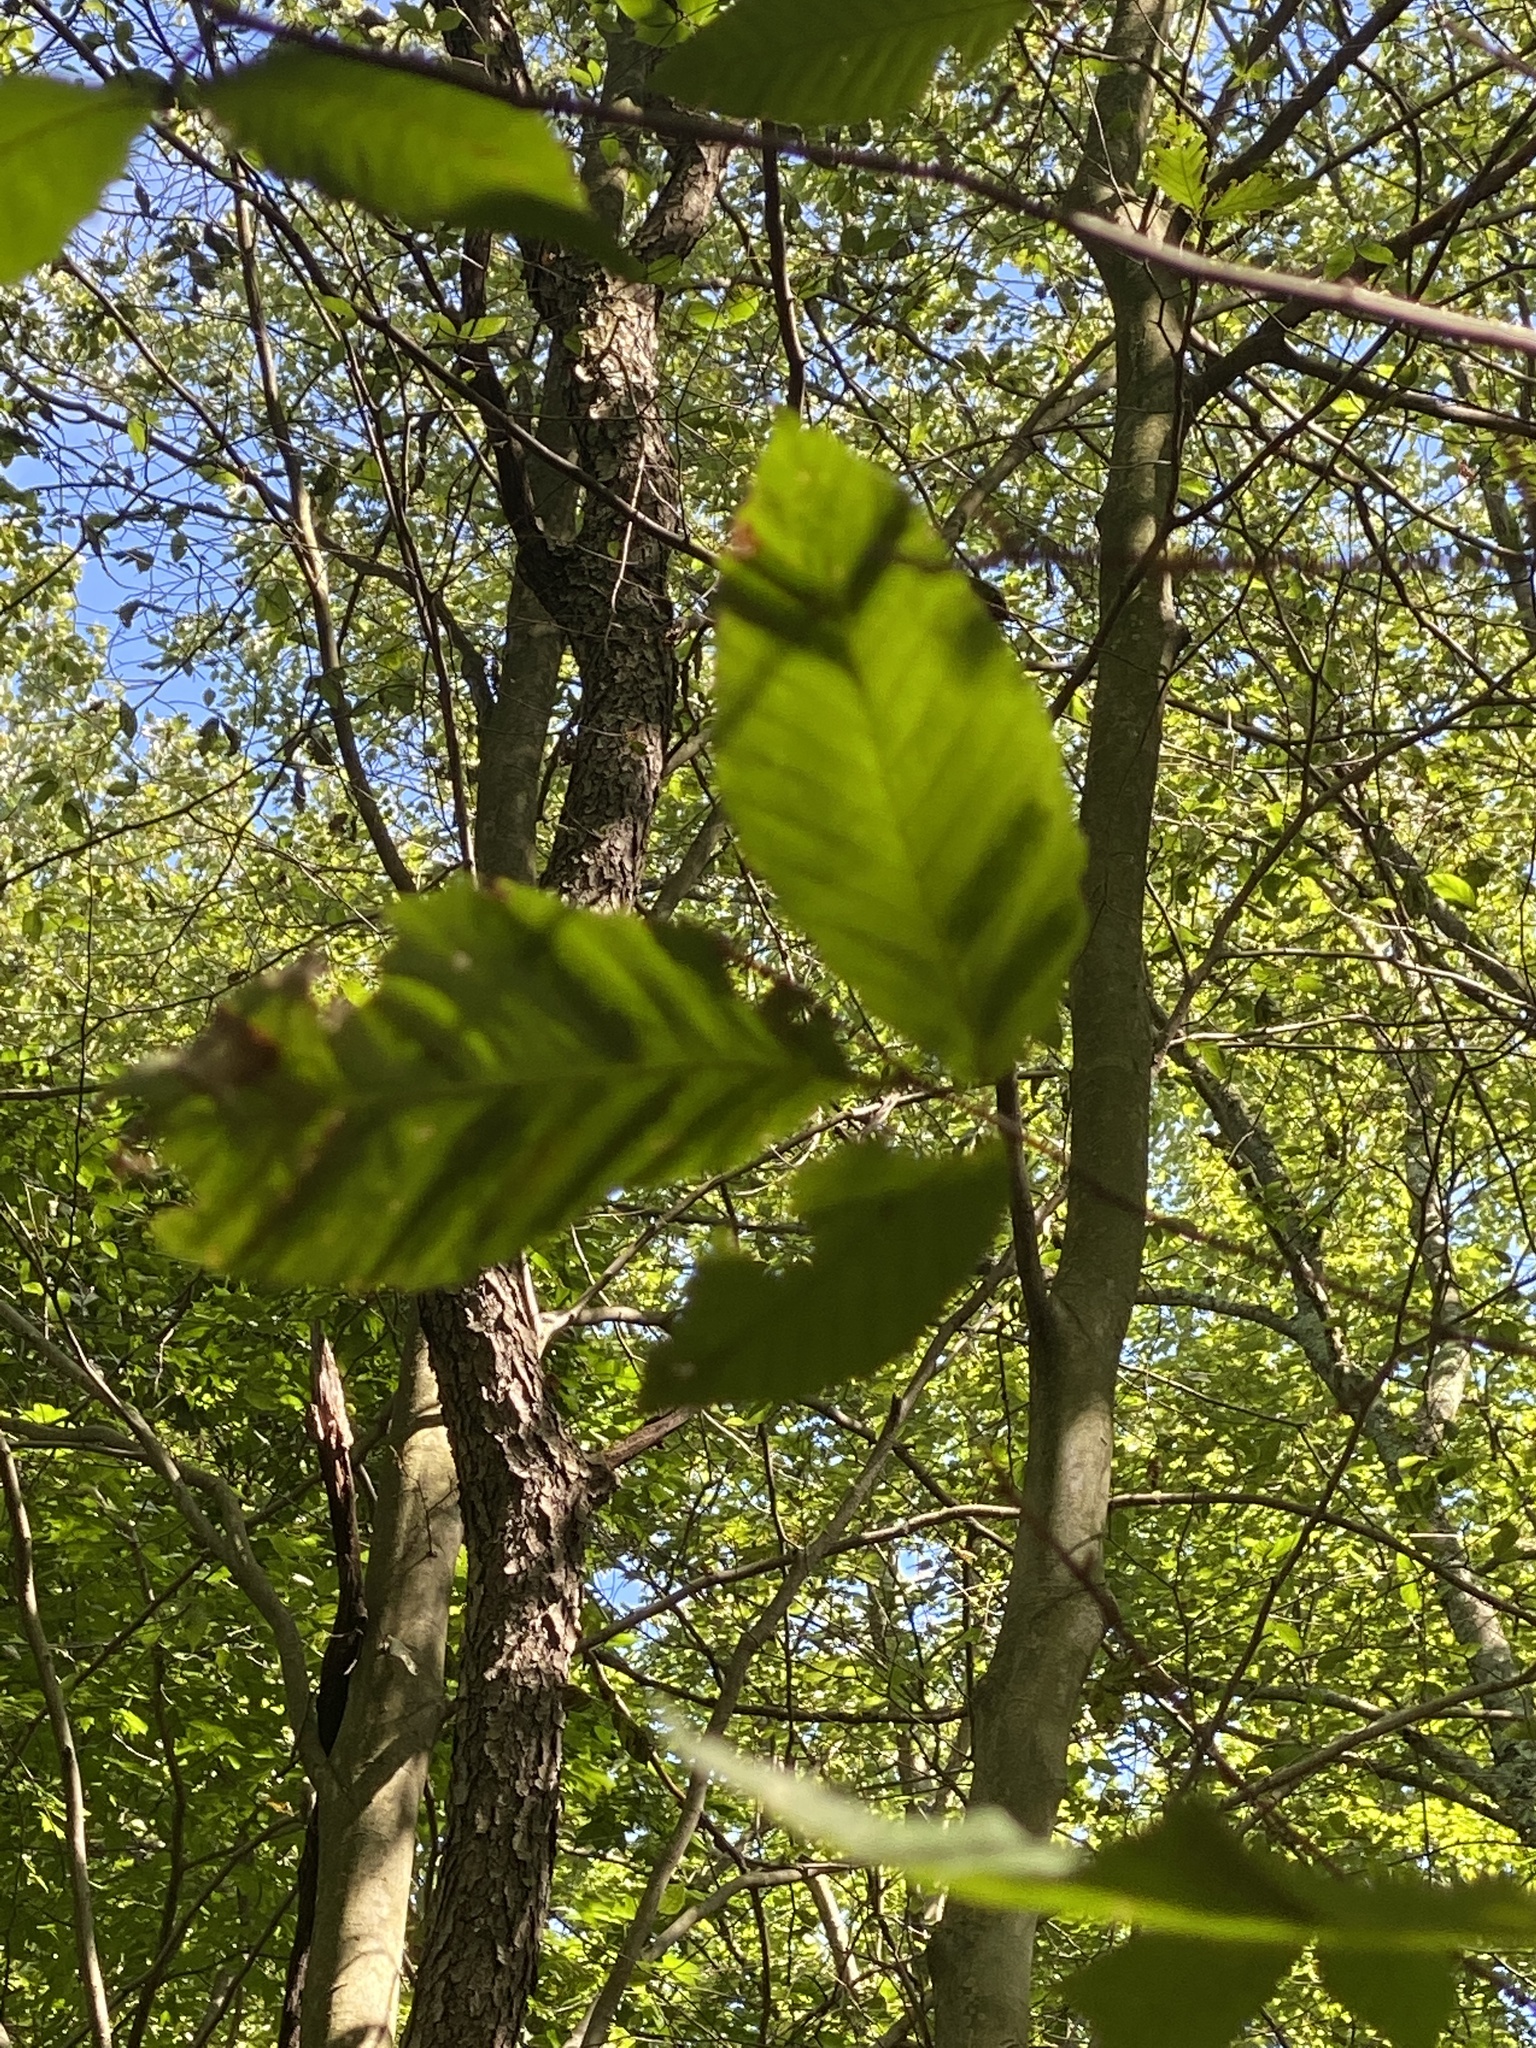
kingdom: Animalia
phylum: Nematoda
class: Chromadorea
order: Rhabditida
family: Anguinidae
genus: Litylenchus
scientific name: Litylenchus crenatae
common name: Beech leaf disease
